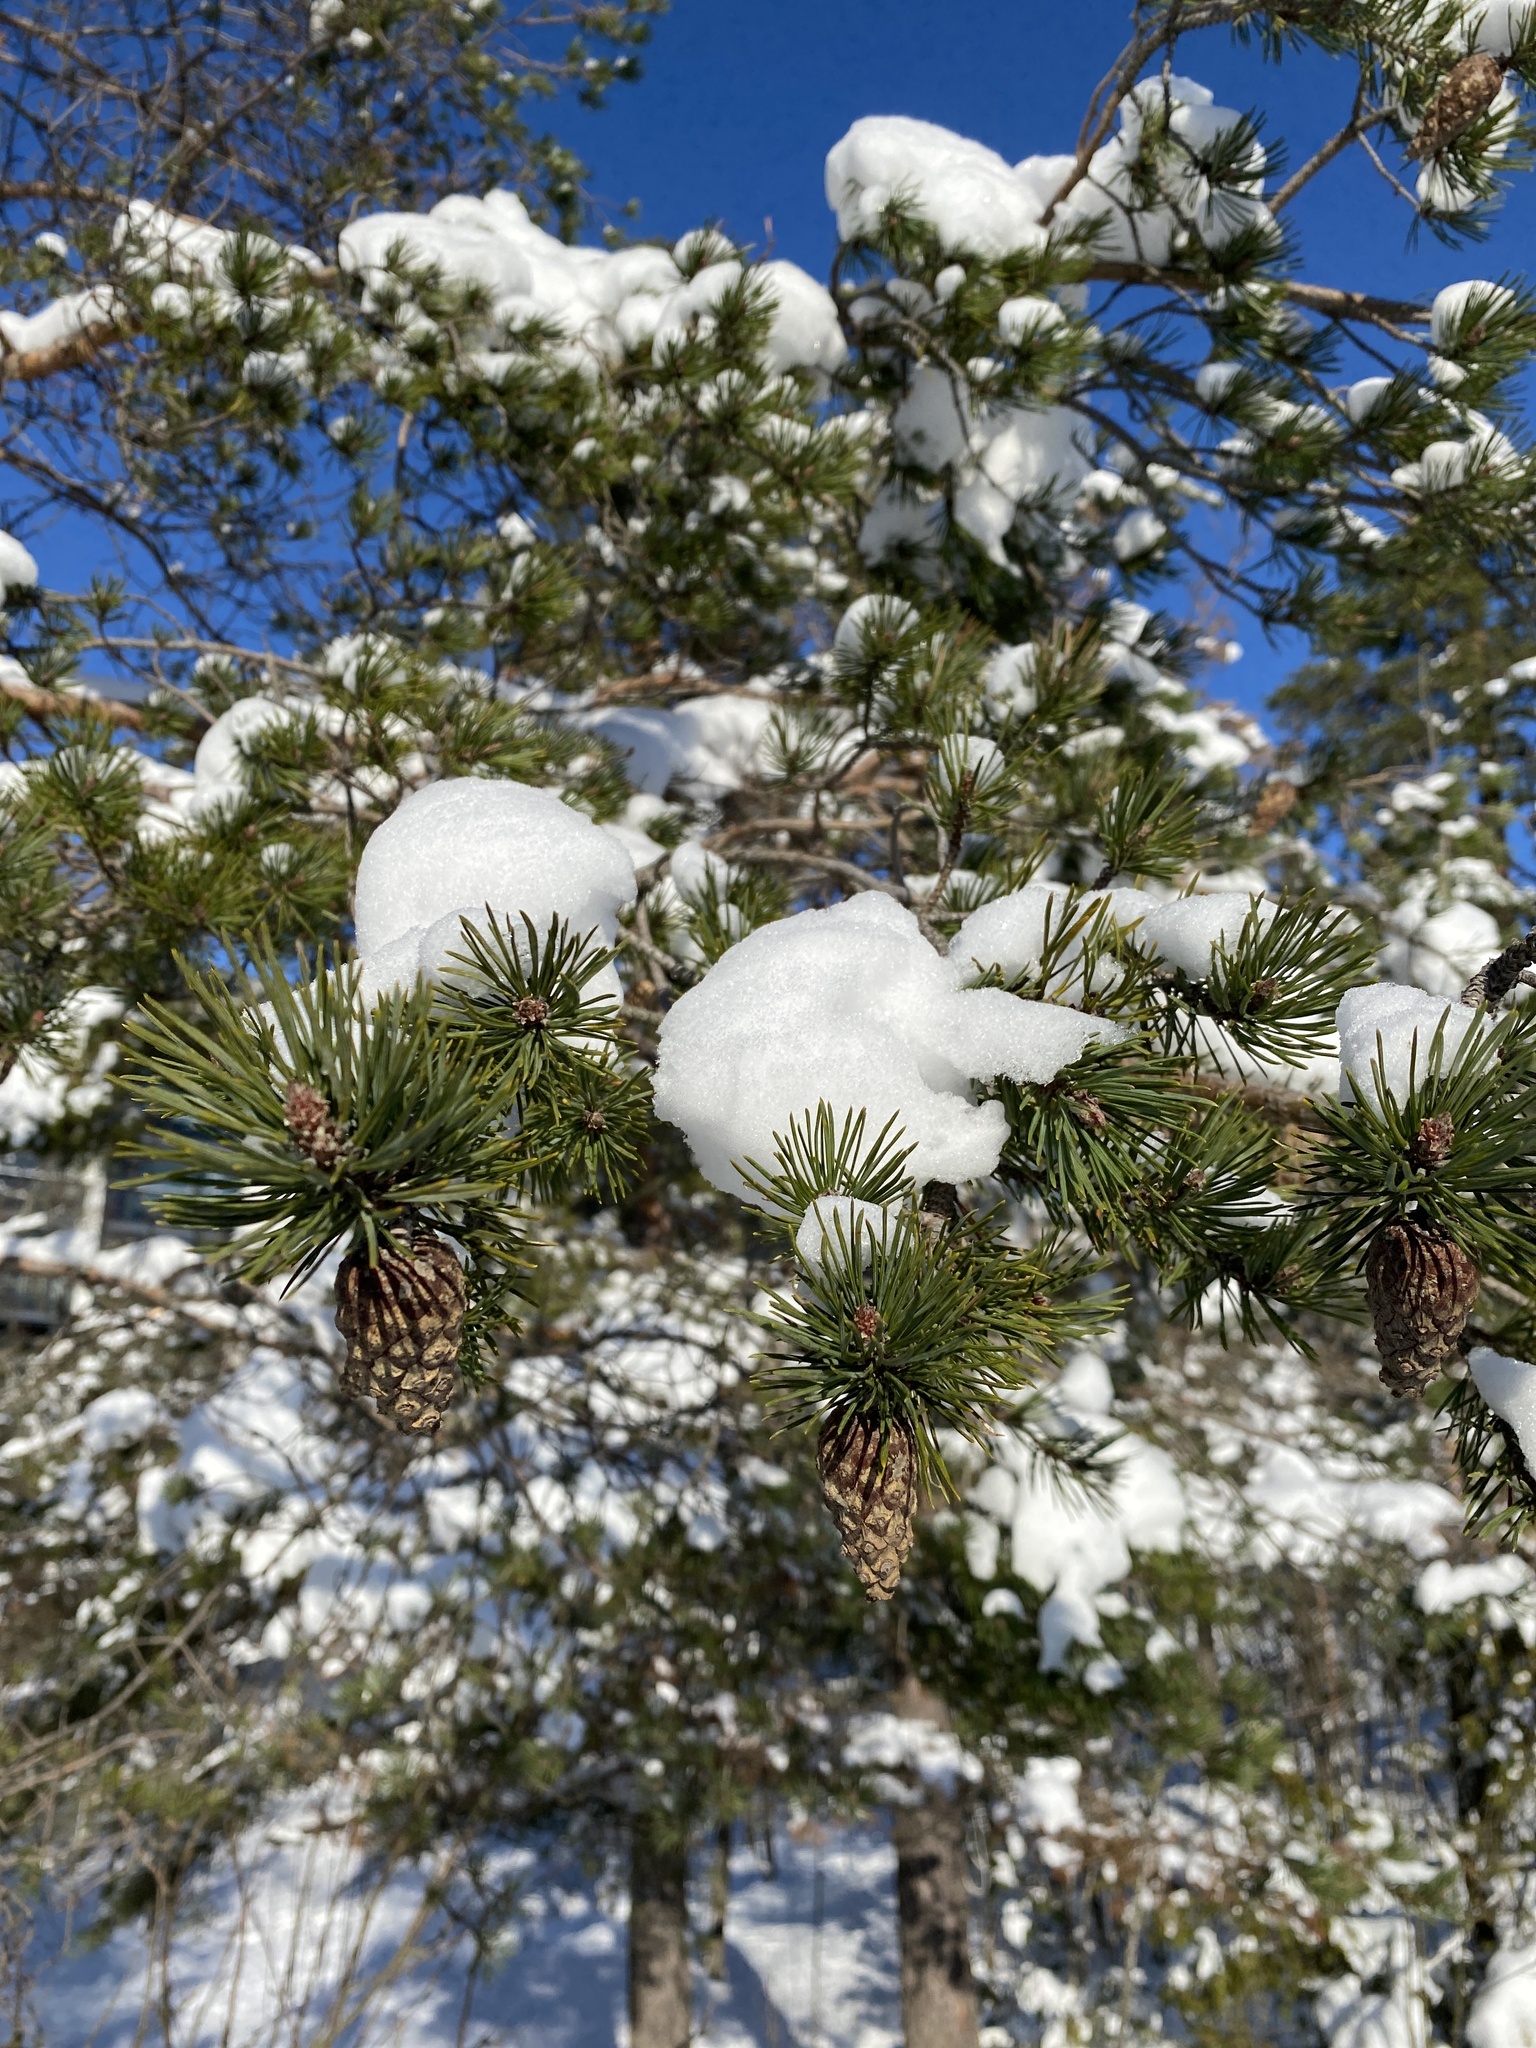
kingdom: Plantae
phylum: Tracheophyta
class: Pinopsida
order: Pinales
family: Pinaceae
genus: Pinus
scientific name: Pinus sylvestris
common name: Scots pine
